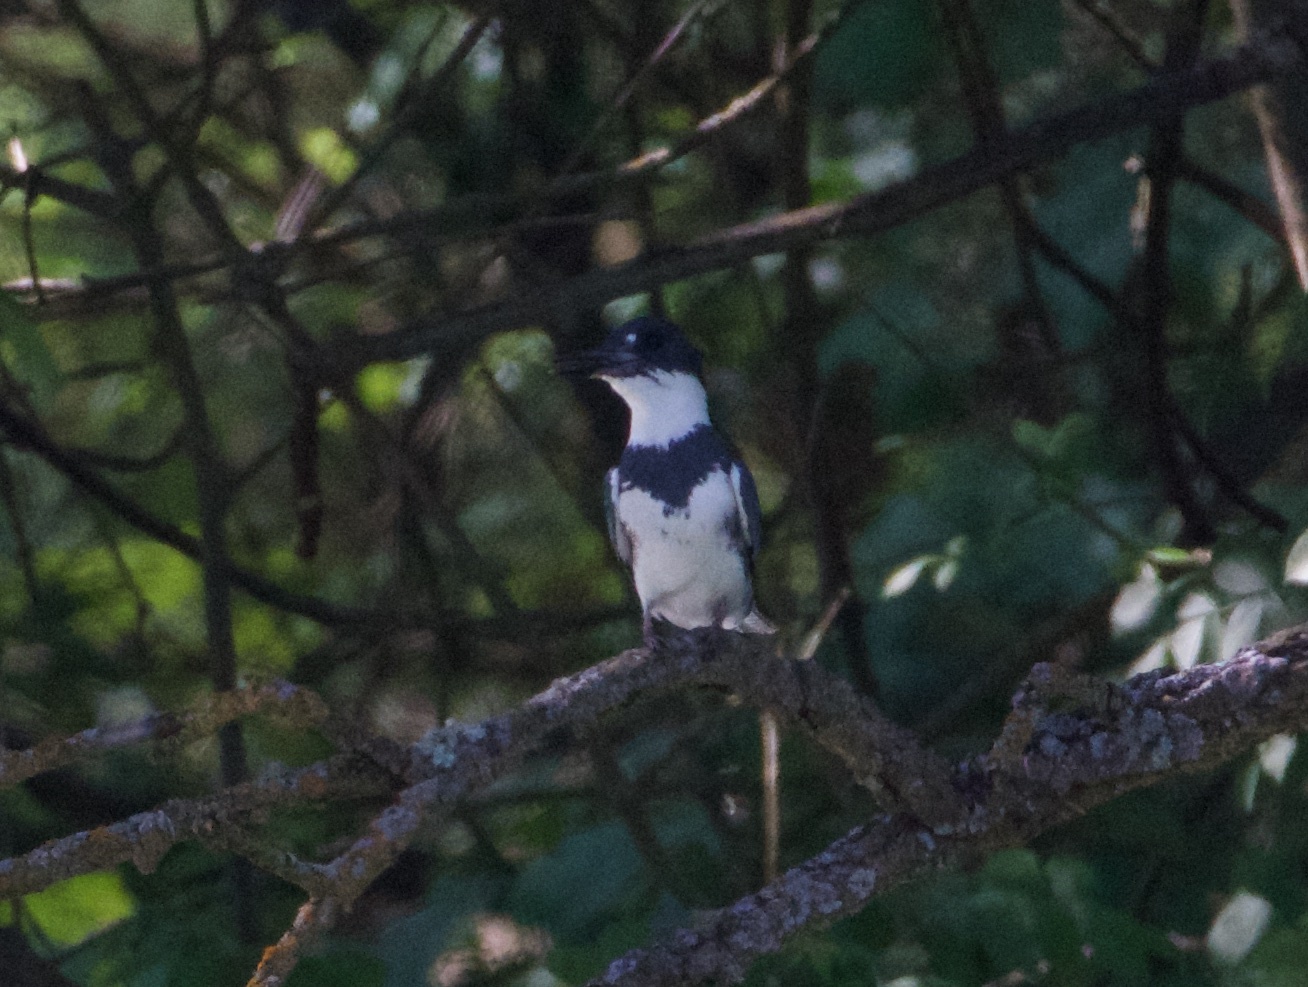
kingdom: Animalia
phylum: Chordata
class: Aves
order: Coraciiformes
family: Alcedinidae
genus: Megaceryle
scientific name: Megaceryle alcyon
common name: Belted kingfisher
